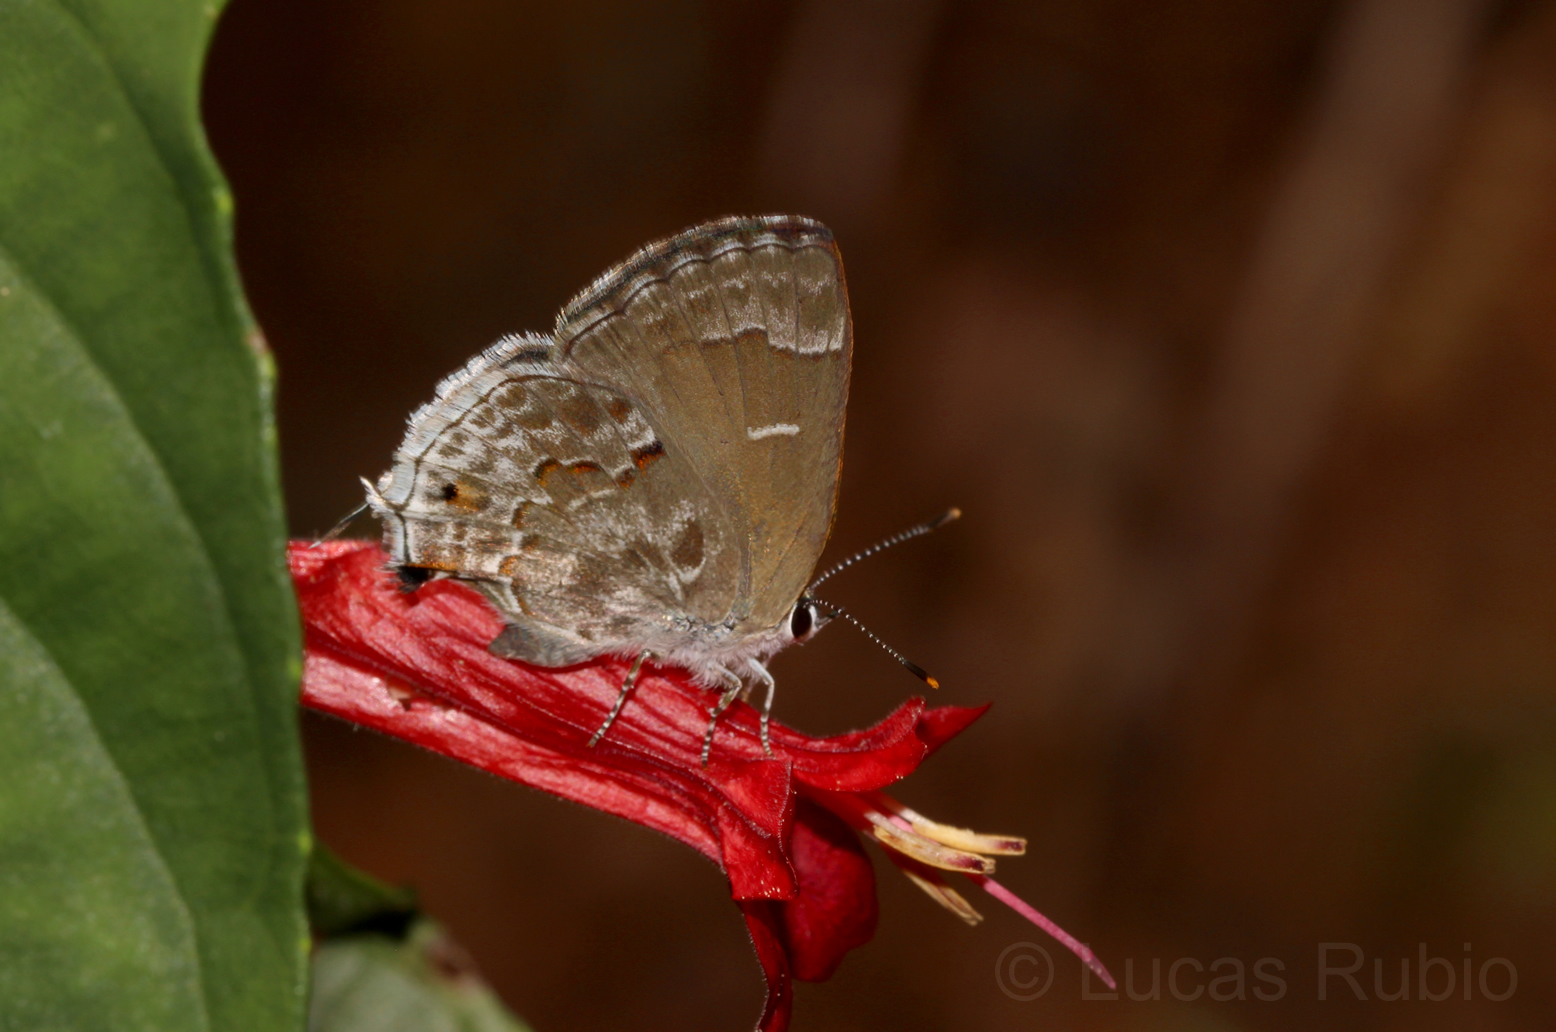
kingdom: Animalia
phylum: Arthropoda
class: Insecta
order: Lepidoptera
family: Lycaenidae
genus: Strymon
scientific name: Strymon mulucha
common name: Mottled scrub-hairstreak
